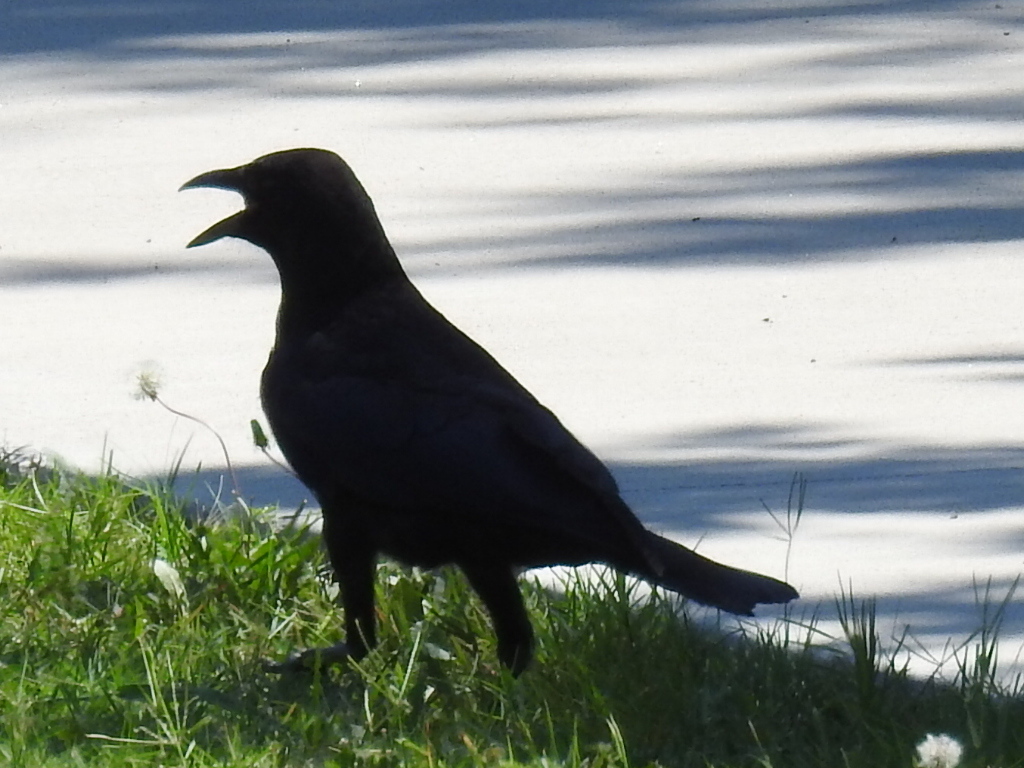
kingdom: Animalia
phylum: Chordata
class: Aves
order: Passeriformes
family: Corvidae
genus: Corvus
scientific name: Corvus brachyrhynchos
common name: American crow
